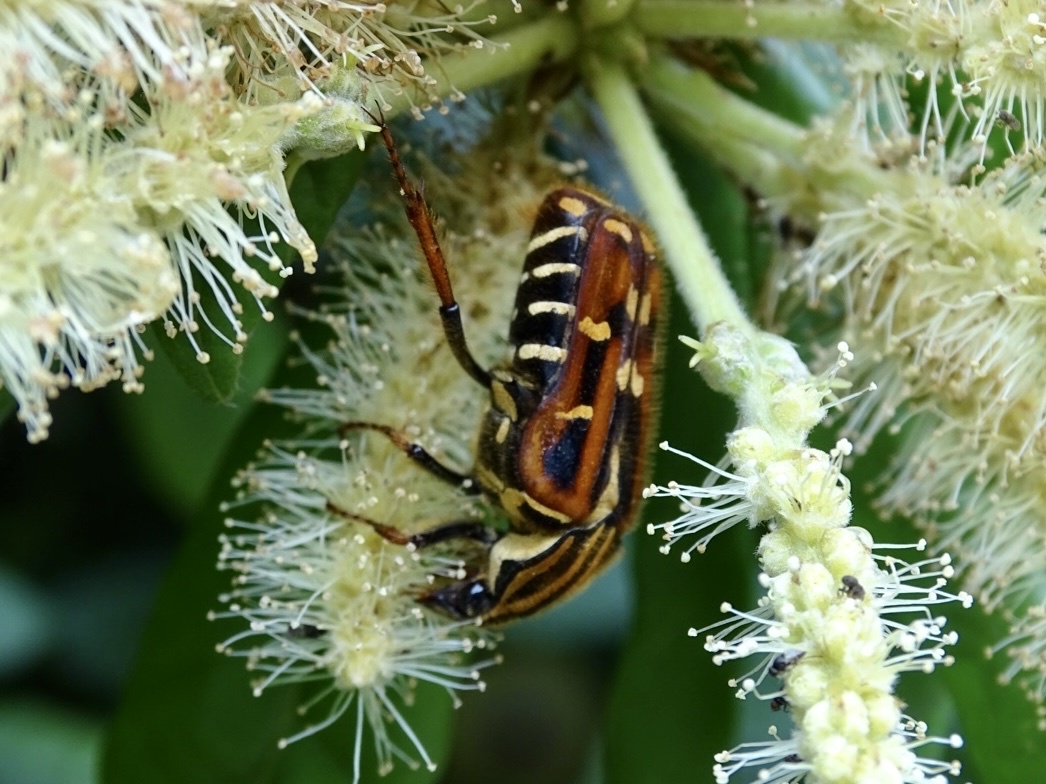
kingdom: Animalia
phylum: Arthropoda
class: Insecta
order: Coleoptera
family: Scarabaeidae
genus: Euselates
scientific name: Euselates magna
